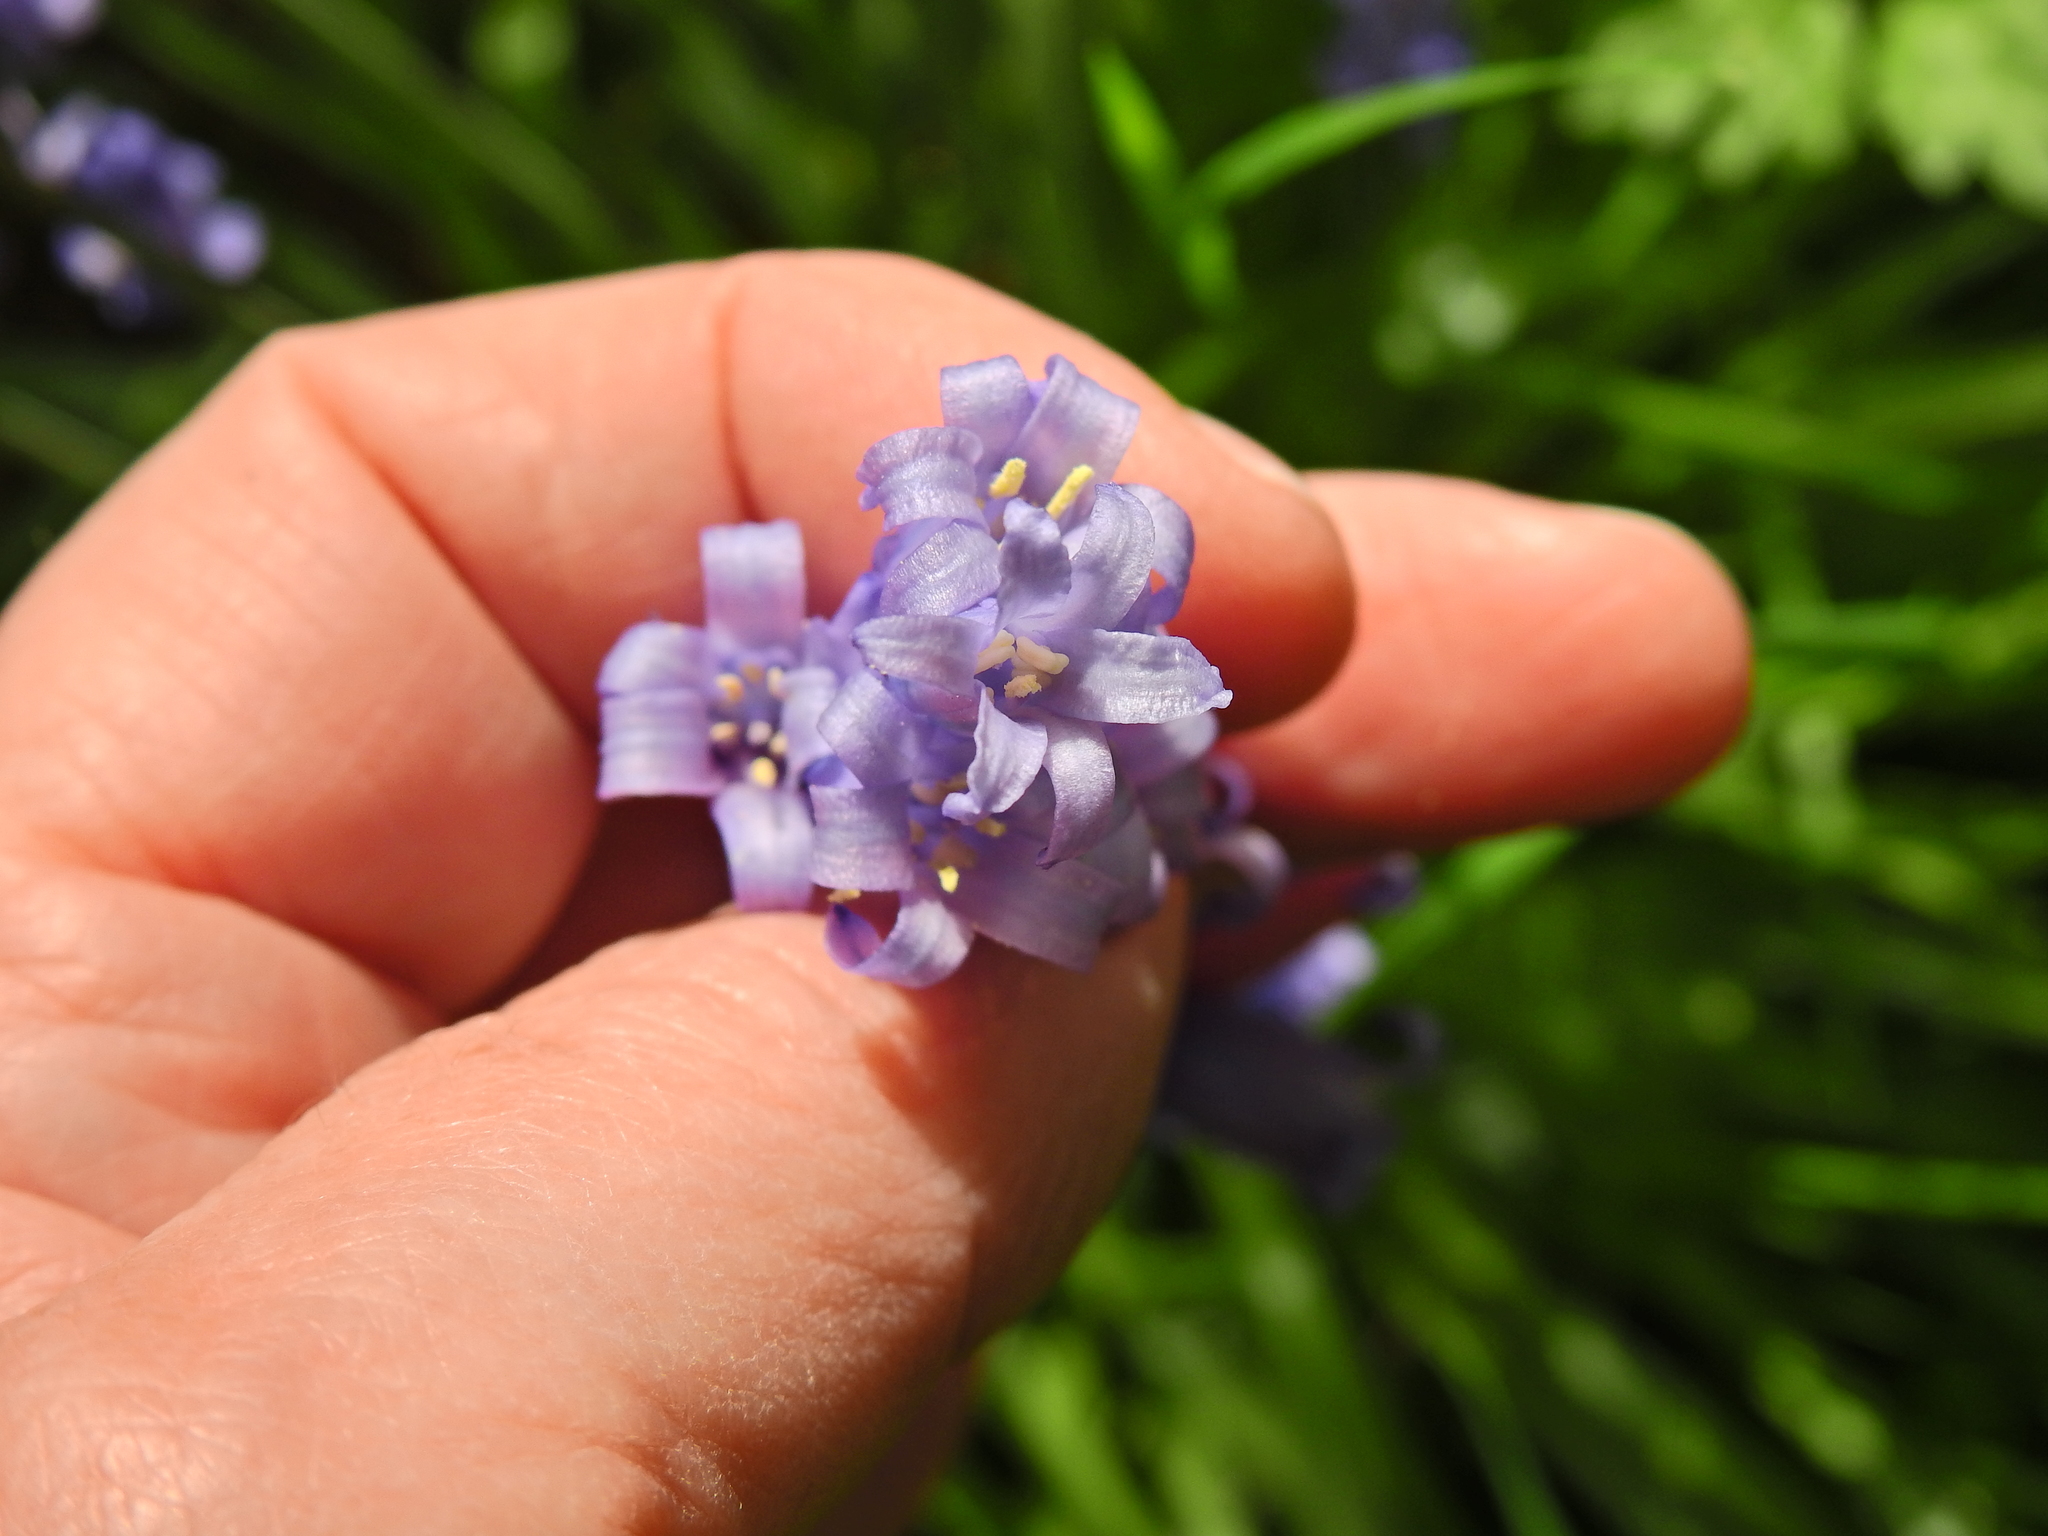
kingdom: Plantae
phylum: Tracheophyta
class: Liliopsida
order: Asparagales
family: Asparagaceae
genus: Hyacinthoides
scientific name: Hyacinthoides non-scripta
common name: Bluebell
